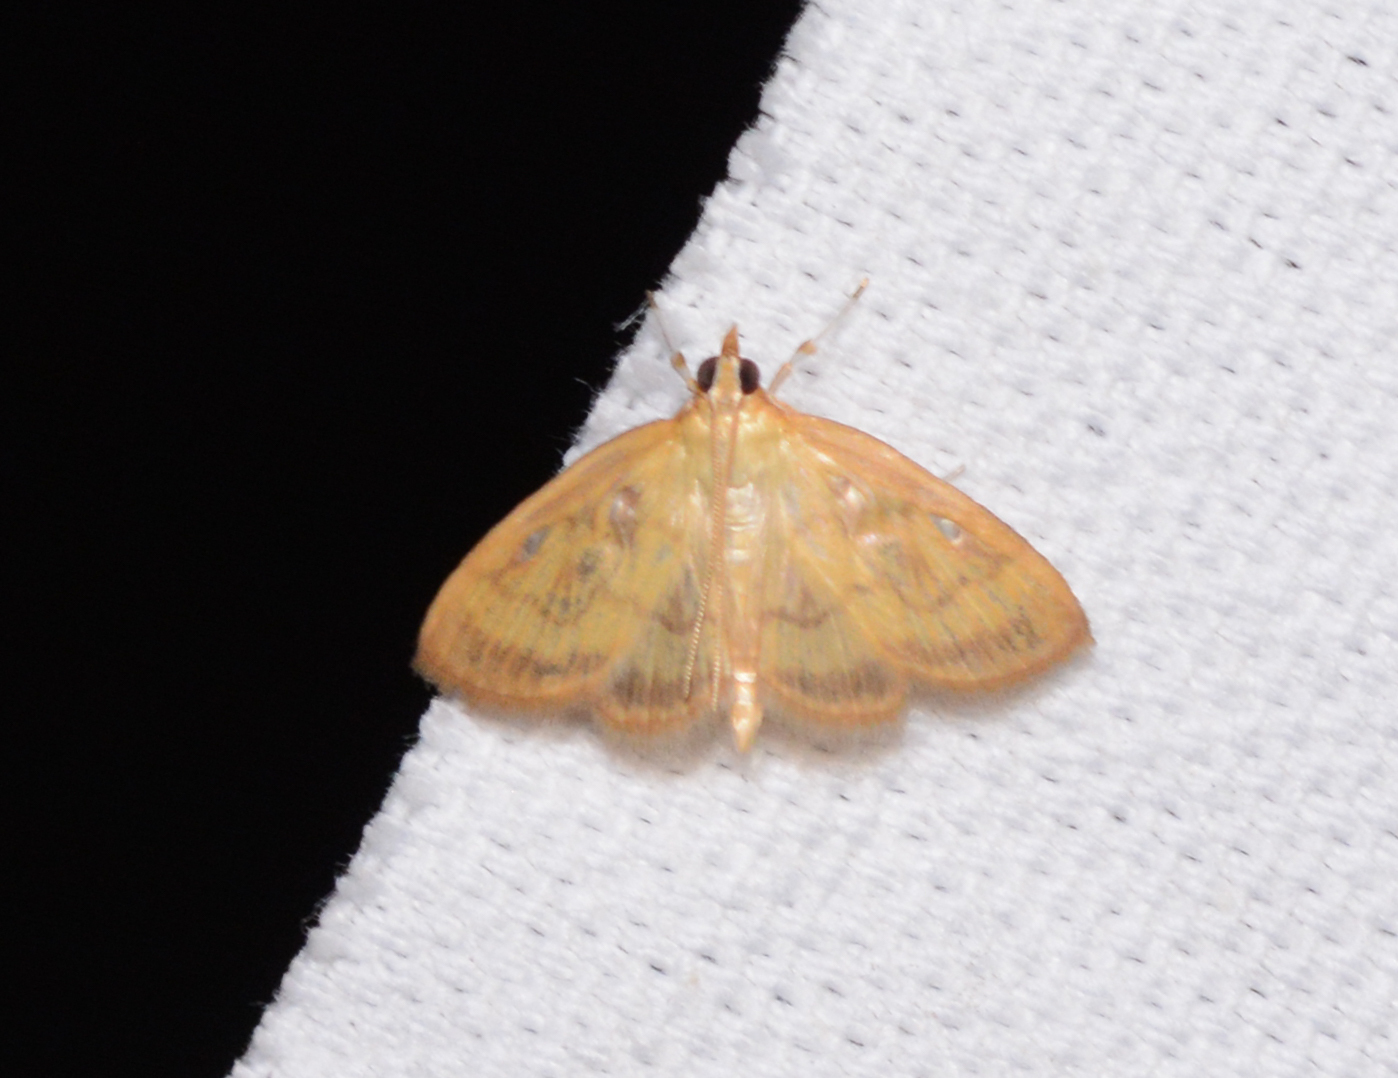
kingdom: Animalia
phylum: Arthropoda
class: Insecta
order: Lepidoptera
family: Crambidae
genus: Crocidophora
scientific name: Crocidophora tuberculalis
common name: Pale-winged crocidiphora moth
